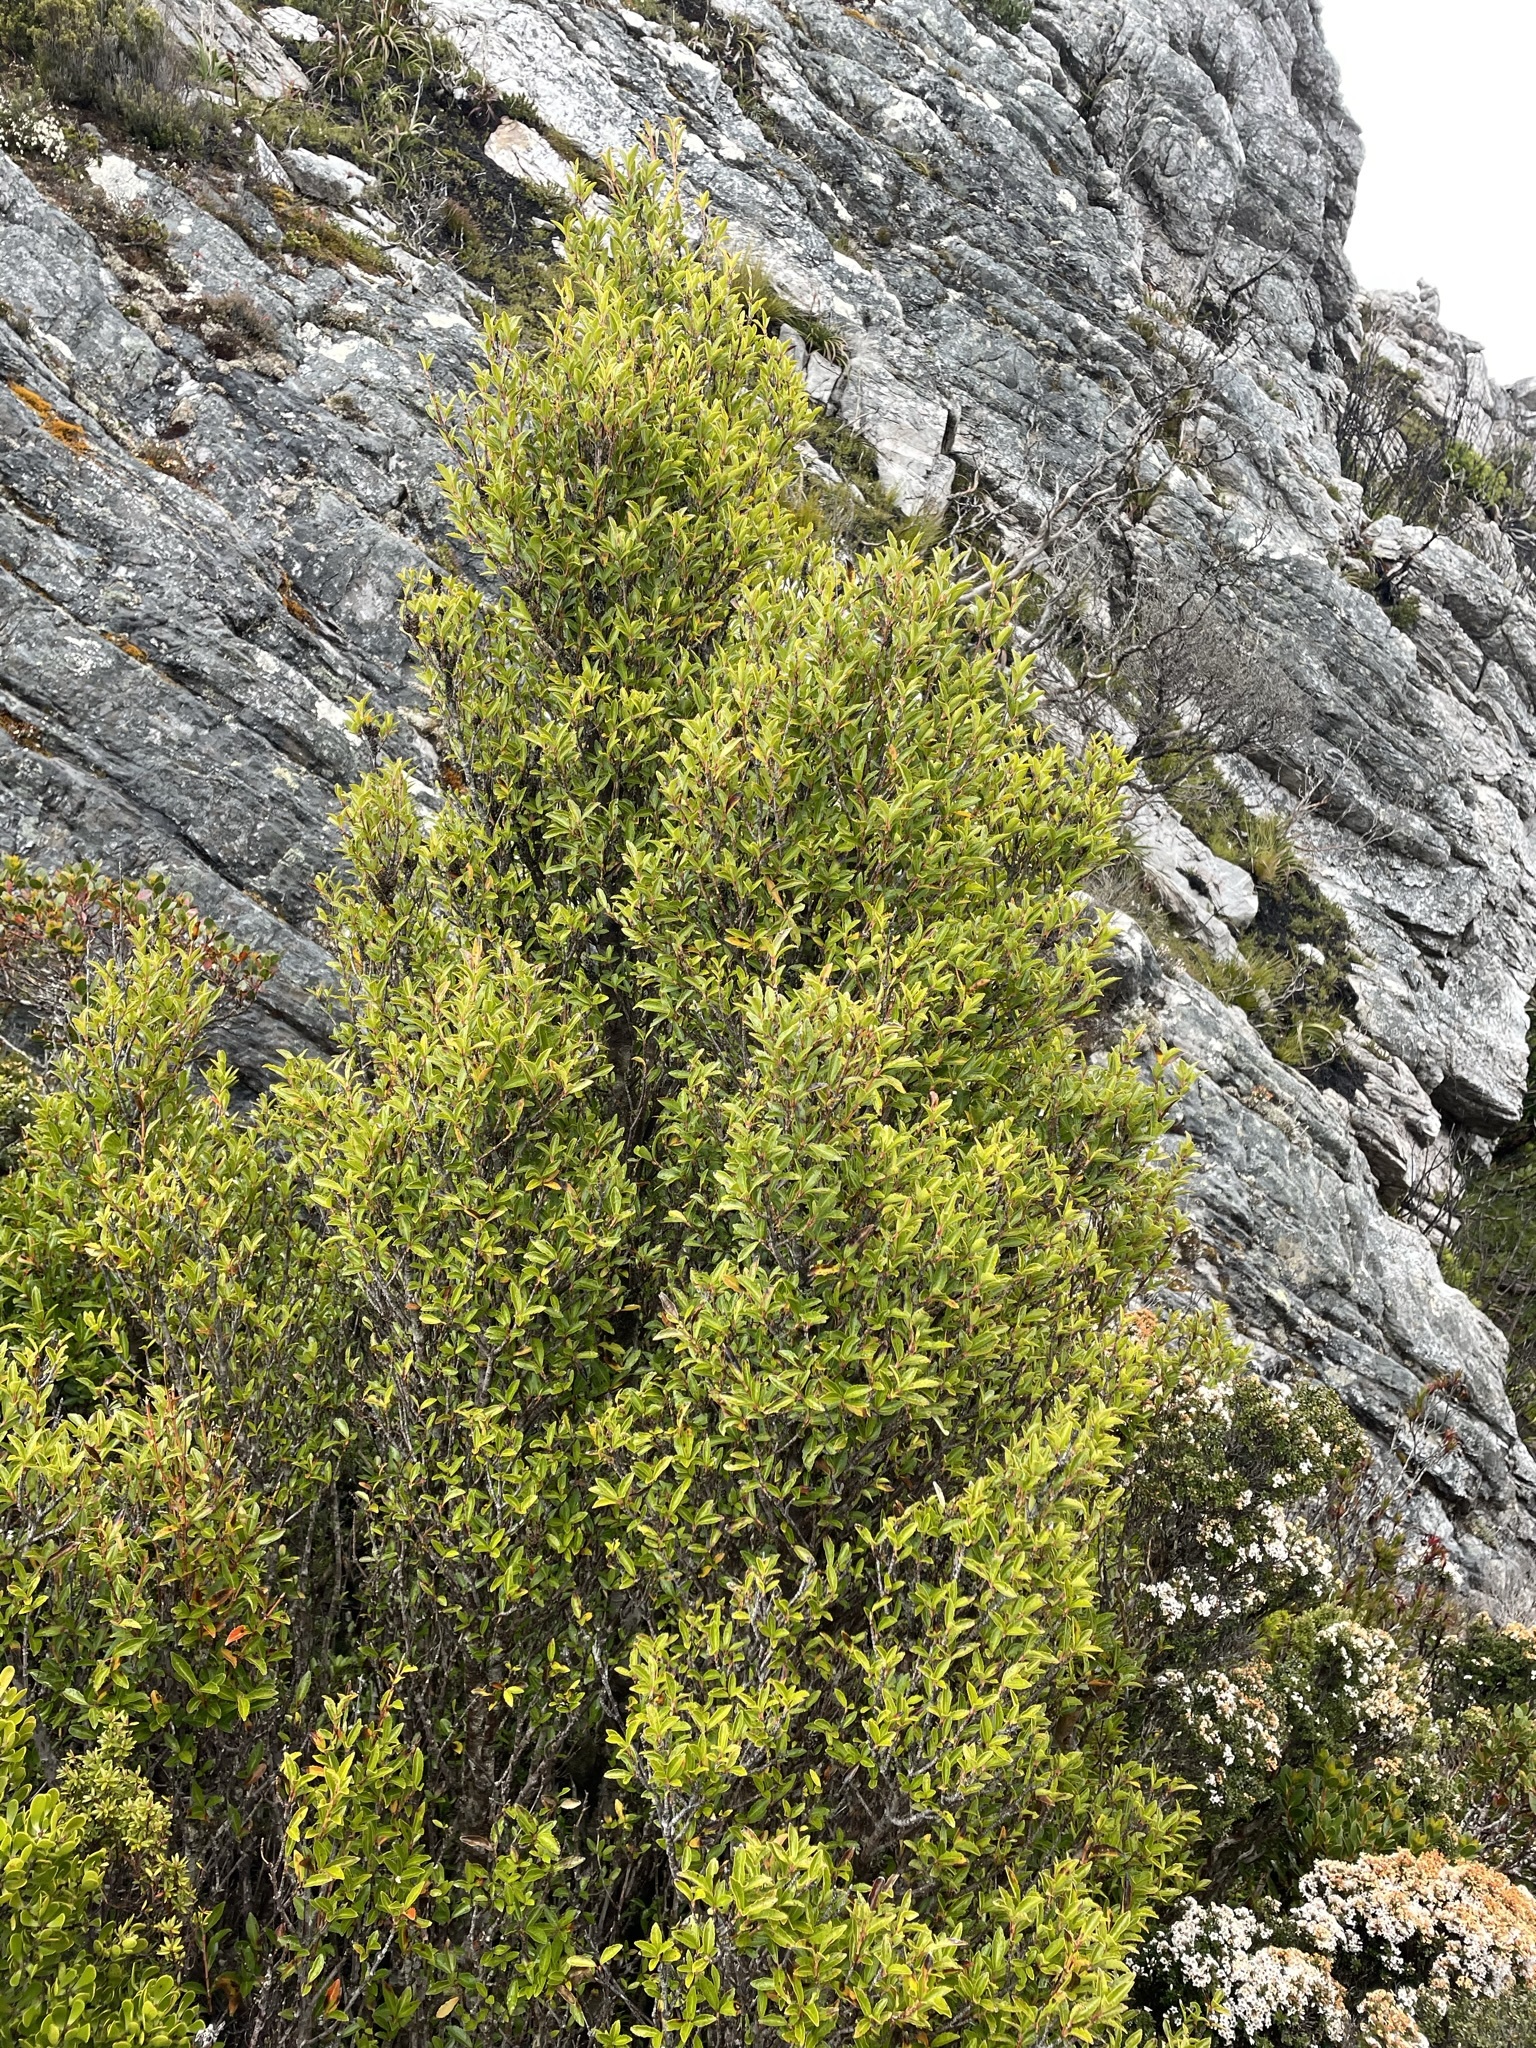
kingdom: Plantae
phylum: Tracheophyta
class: Magnoliopsida
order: Oxalidales
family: Cunoniaceae
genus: Anodopetalum
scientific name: Anodopetalum biglandulosum
